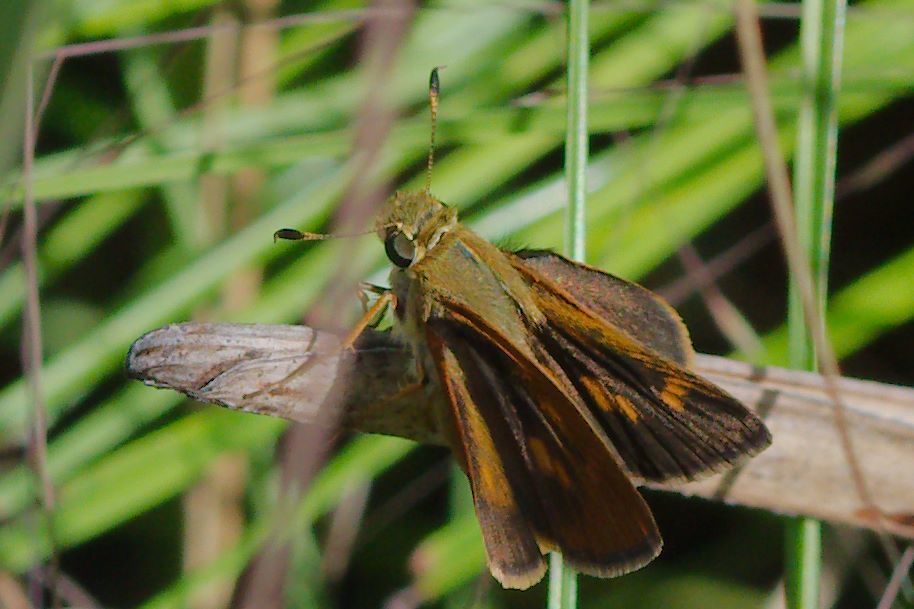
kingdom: Animalia
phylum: Arthropoda
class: Insecta
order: Lepidoptera
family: Hesperiidae
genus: Polites
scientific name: Polites otho
